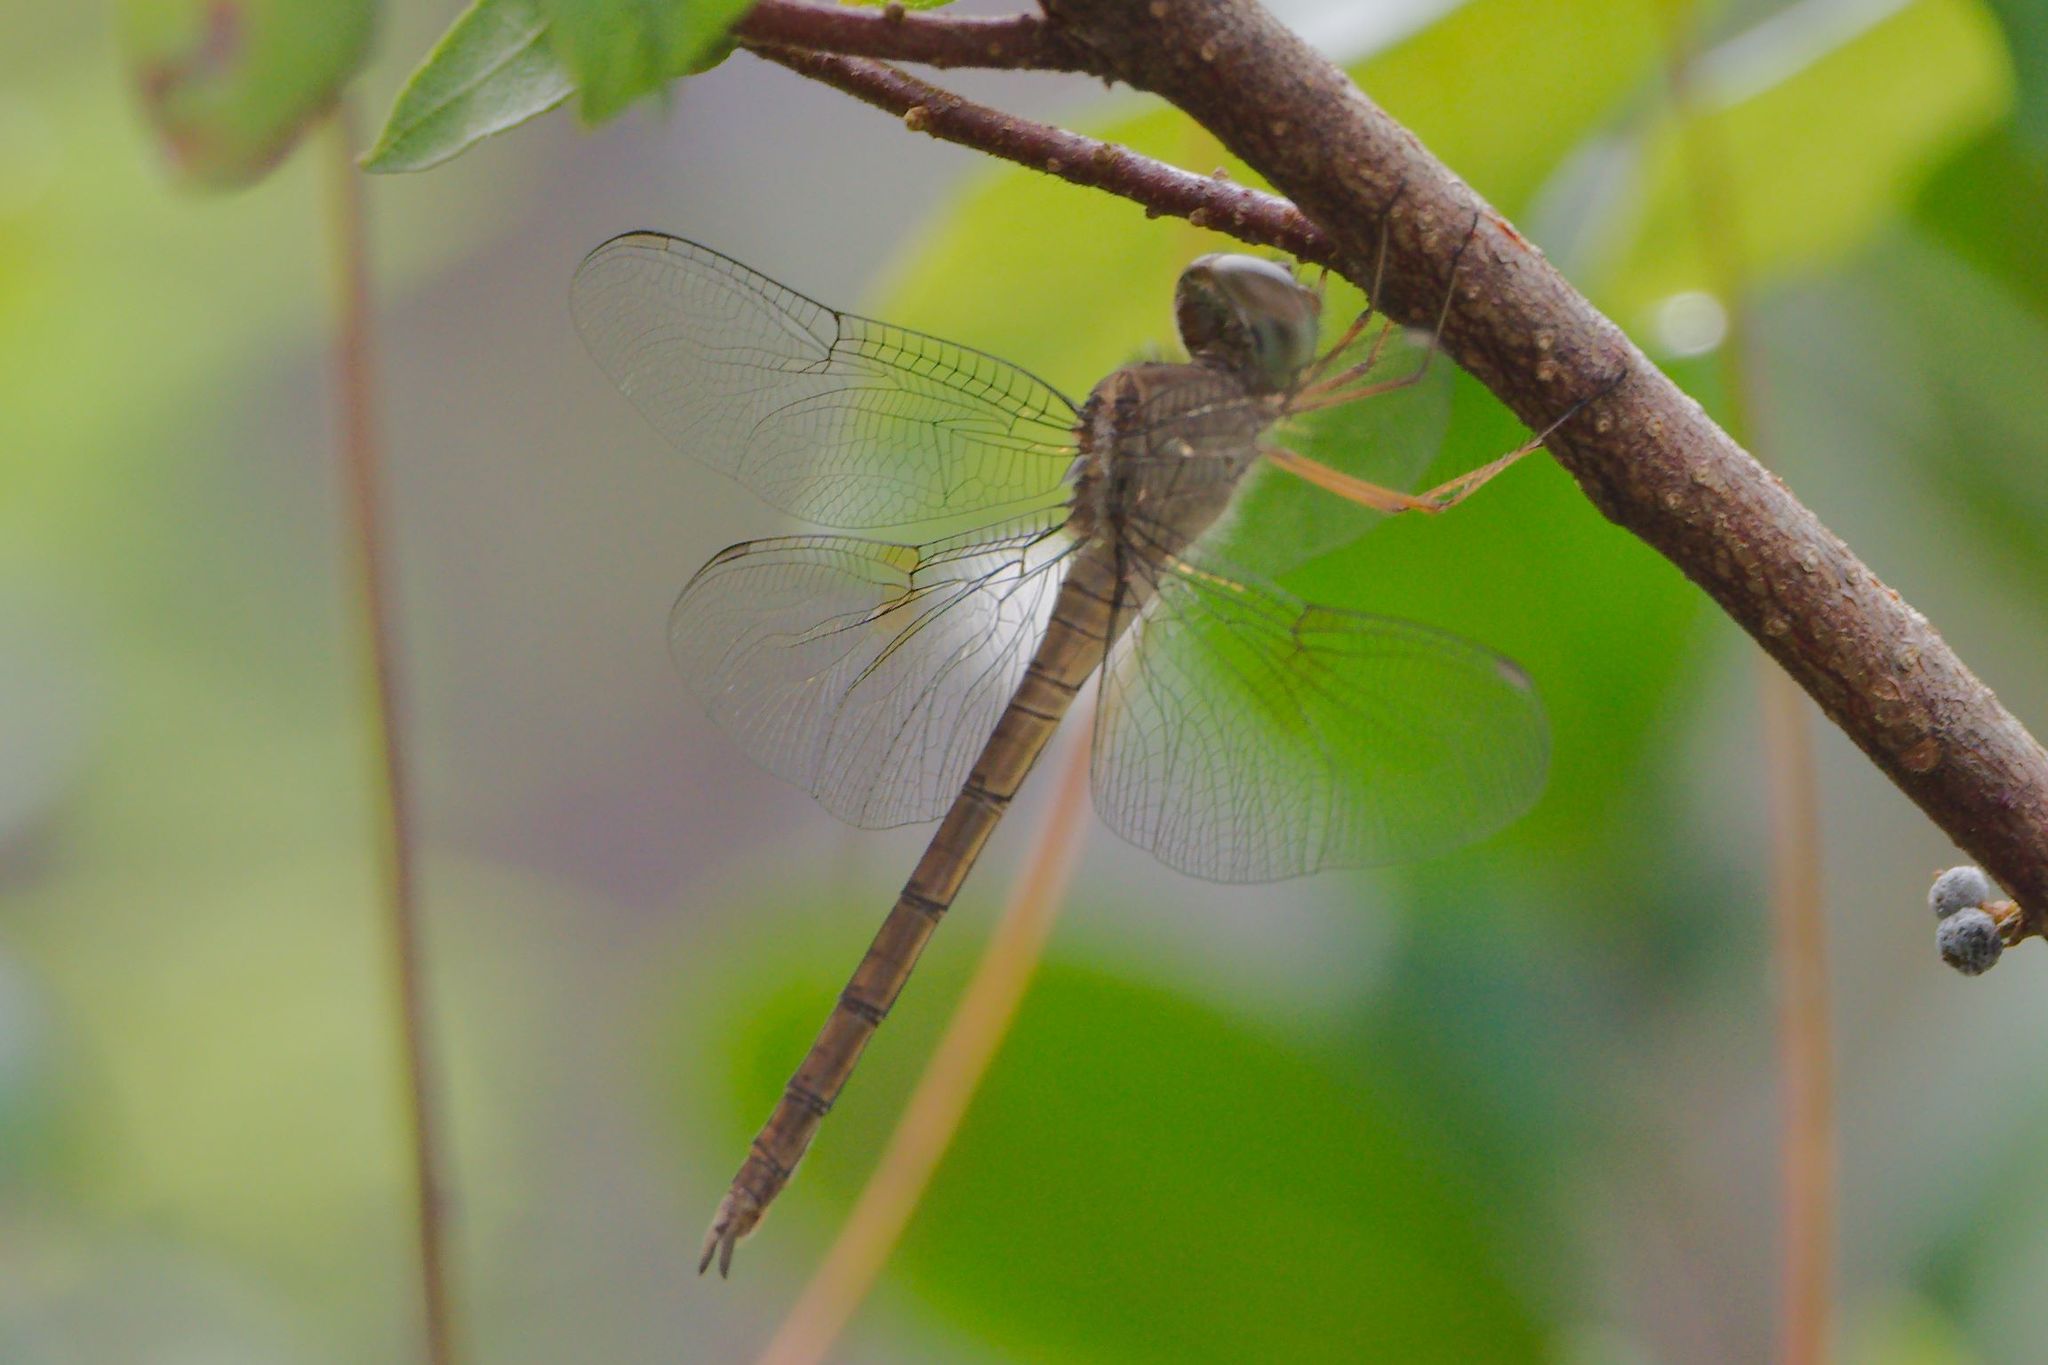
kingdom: Animalia
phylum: Arthropoda
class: Insecta
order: Odonata
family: Libellulidae
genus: Tholymis
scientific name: Tholymis citrina
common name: Evening skimmer
